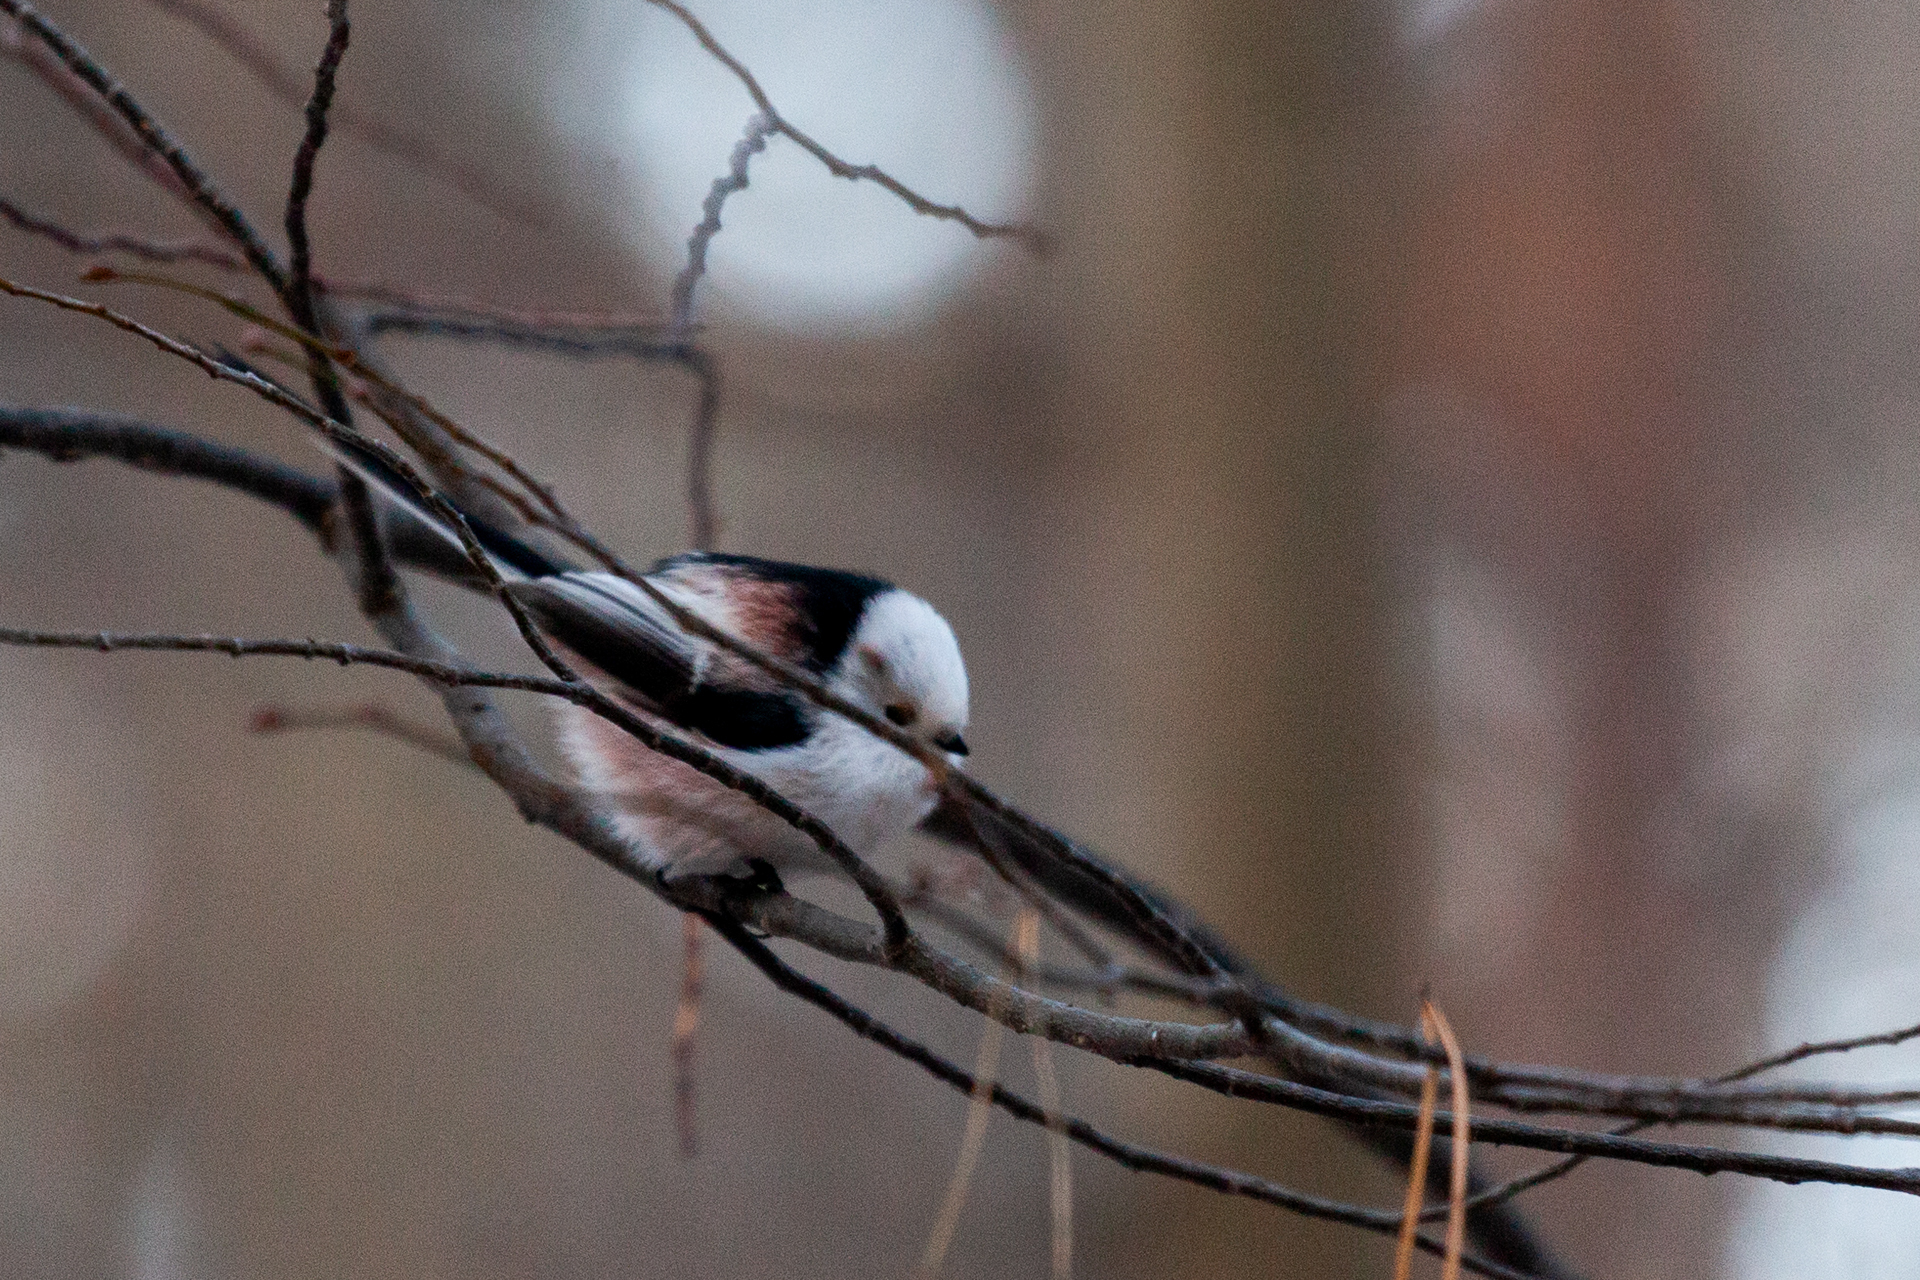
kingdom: Animalia
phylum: Chordata
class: Aves
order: Passeriformes
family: Aegithalidae
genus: Aegithalos
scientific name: Aegithalos caudatus
